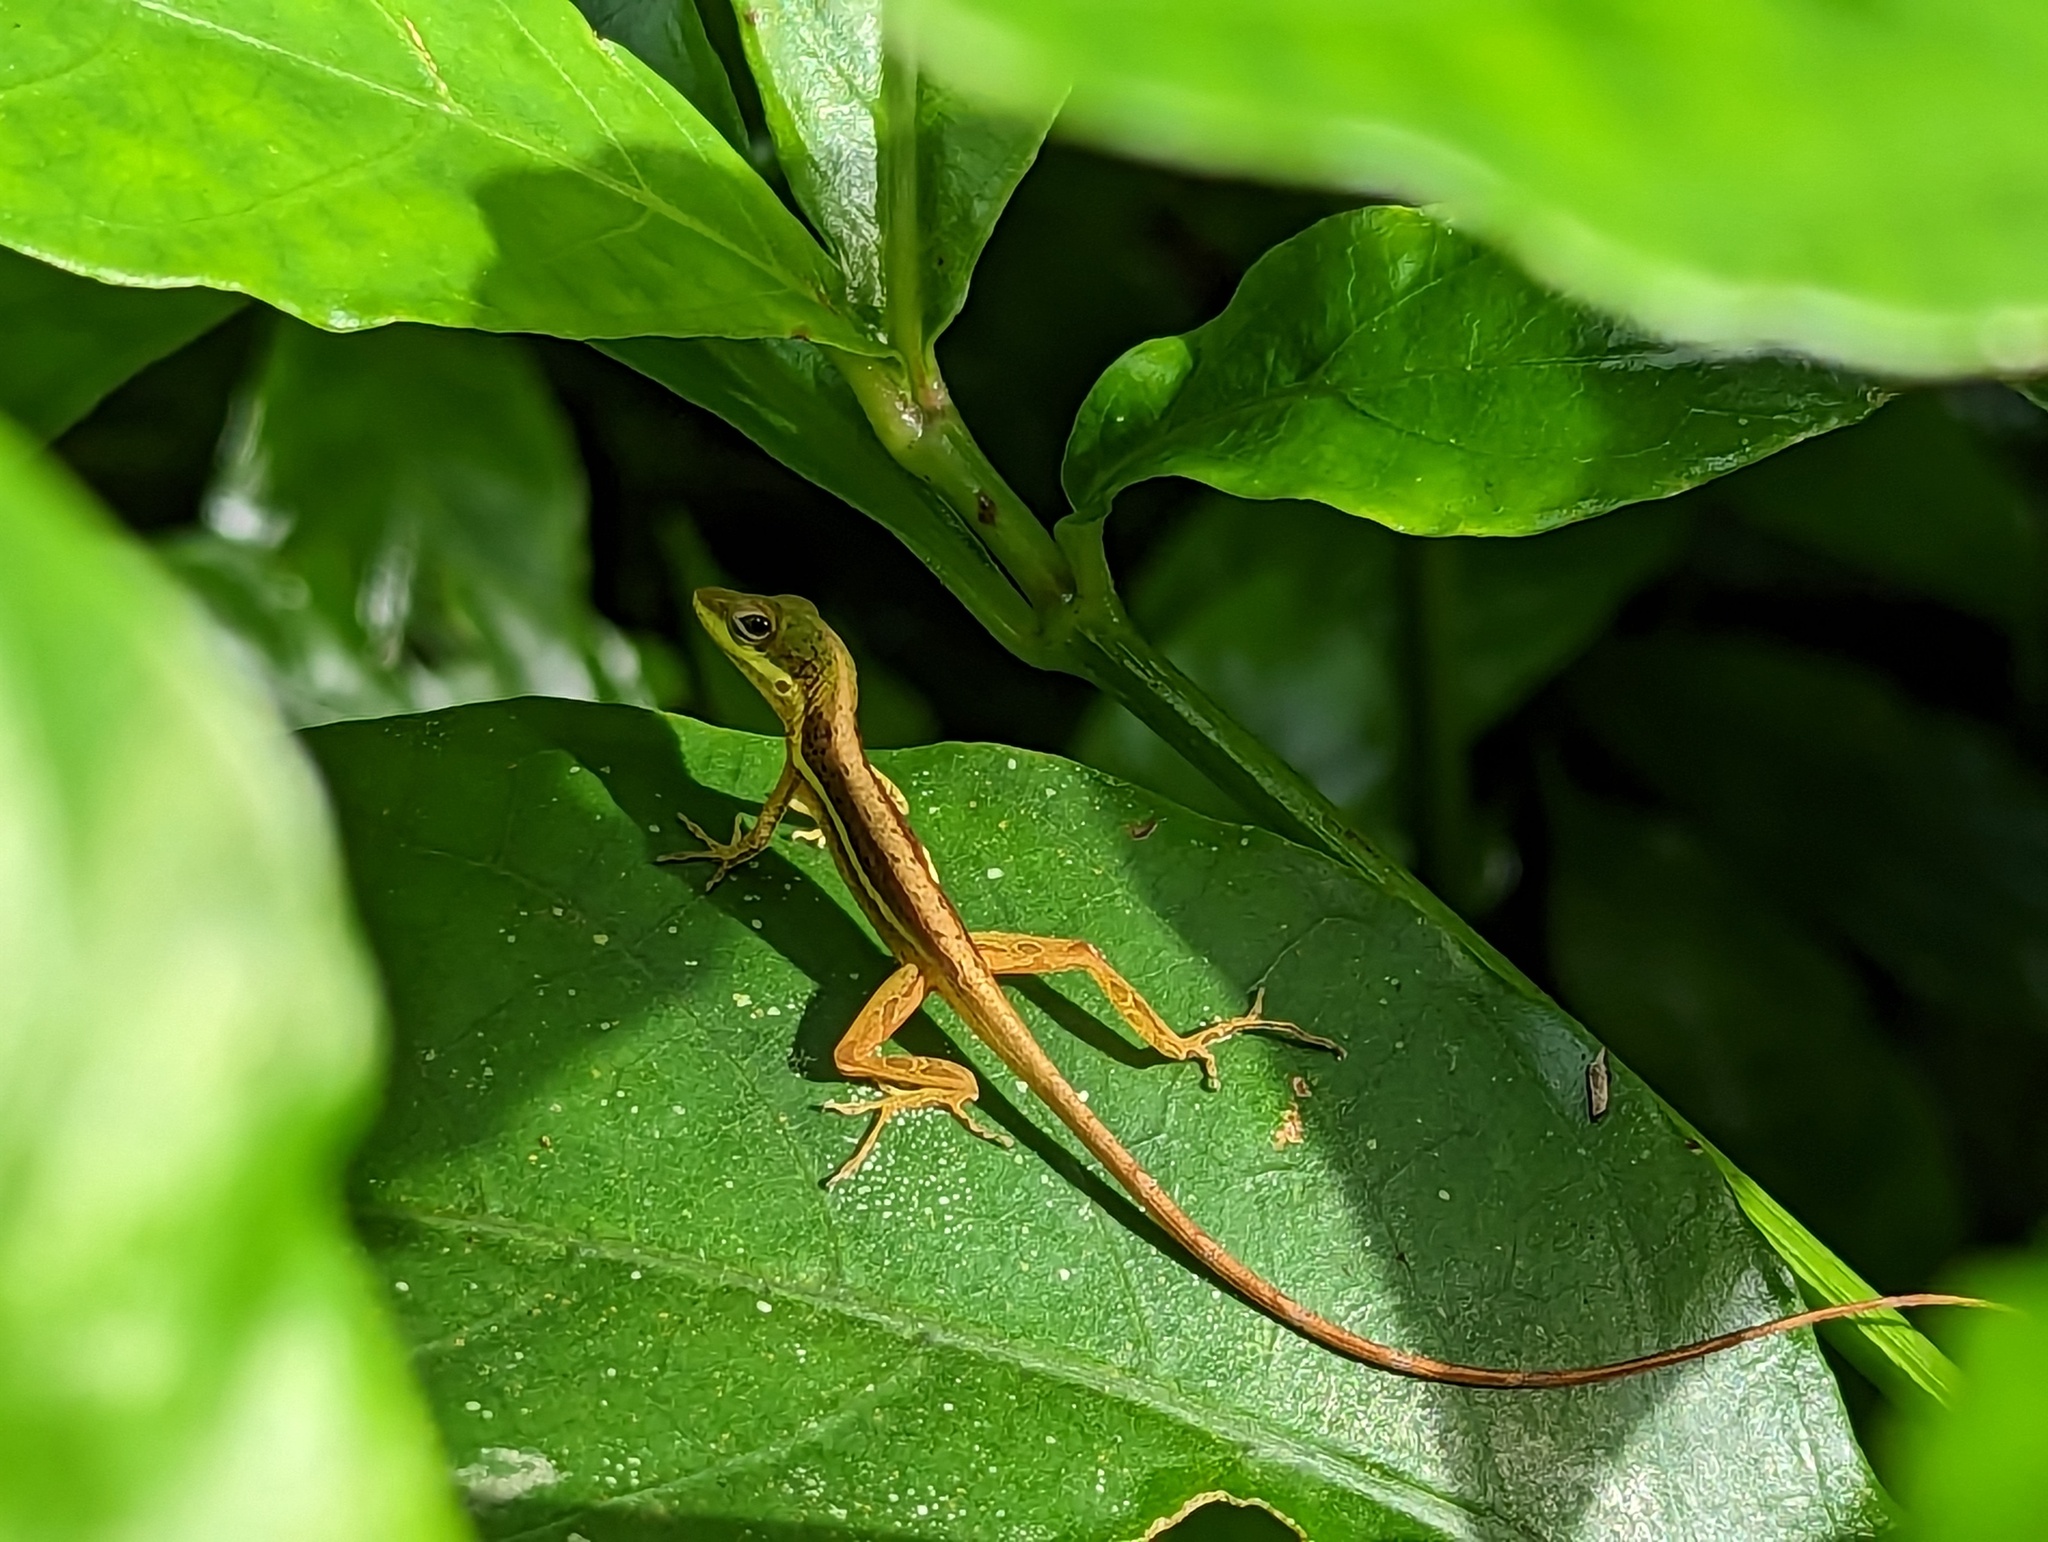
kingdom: Animalia
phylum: Chordata
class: Squamata
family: Dactyloidae
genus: Anolis
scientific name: Anolis krugi
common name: Krug's anole
